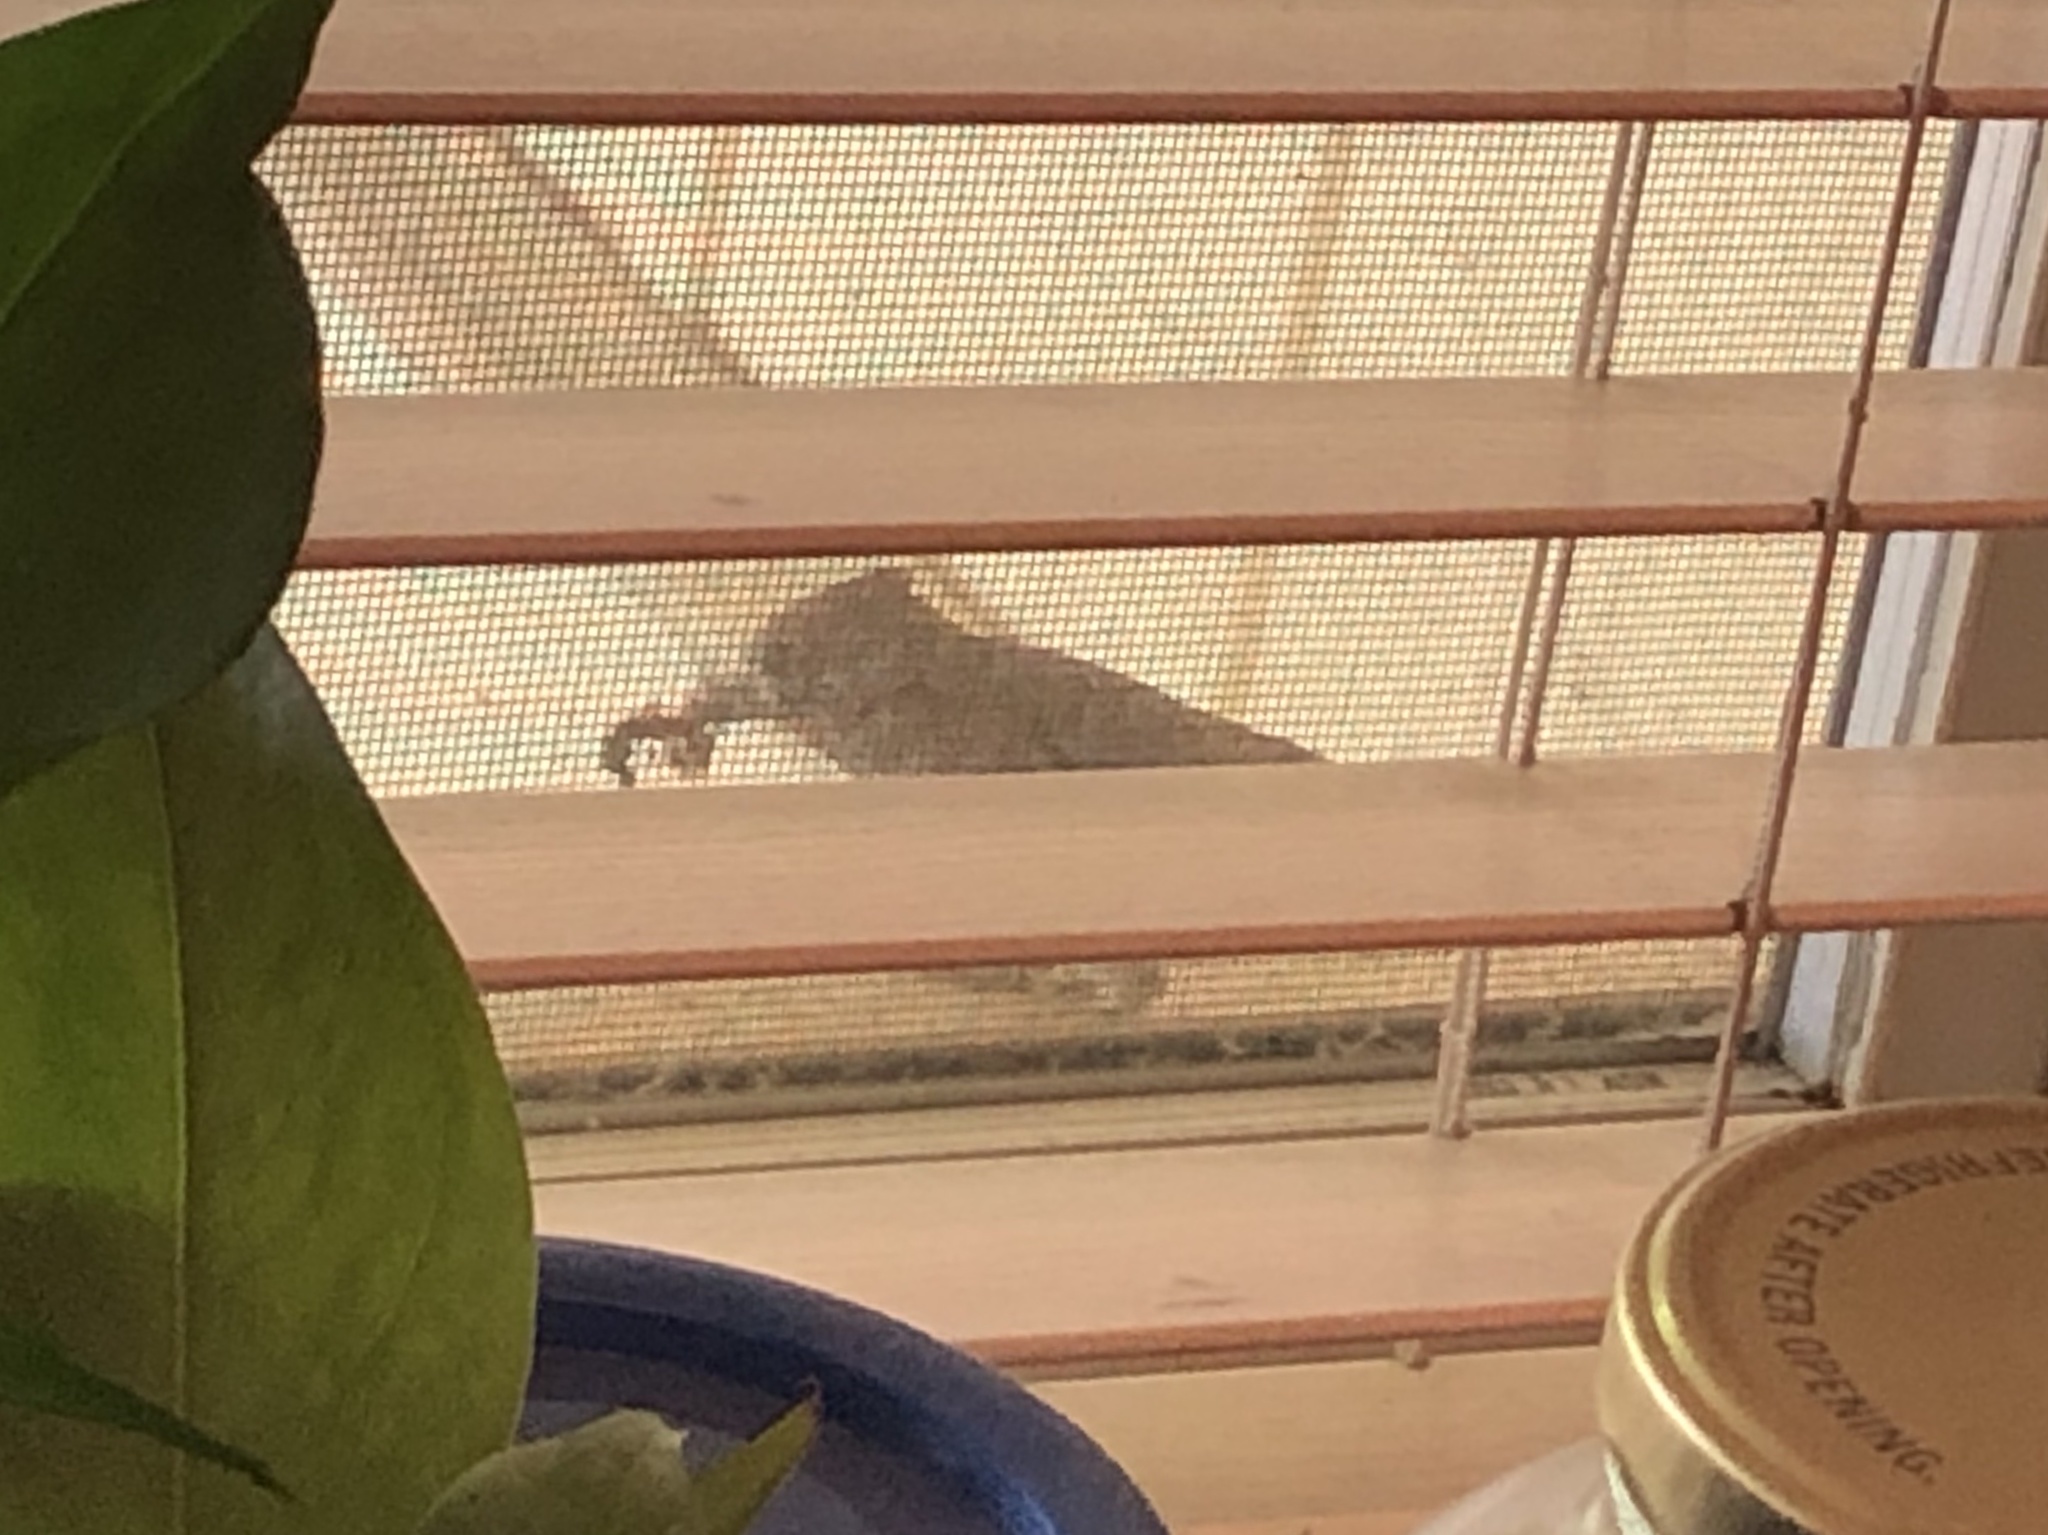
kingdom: Animalia
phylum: Chordata
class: Aves
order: Passeriformes
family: Paridae
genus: Baeolophus
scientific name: Baeolophus inornatus
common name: Oak titmouse
